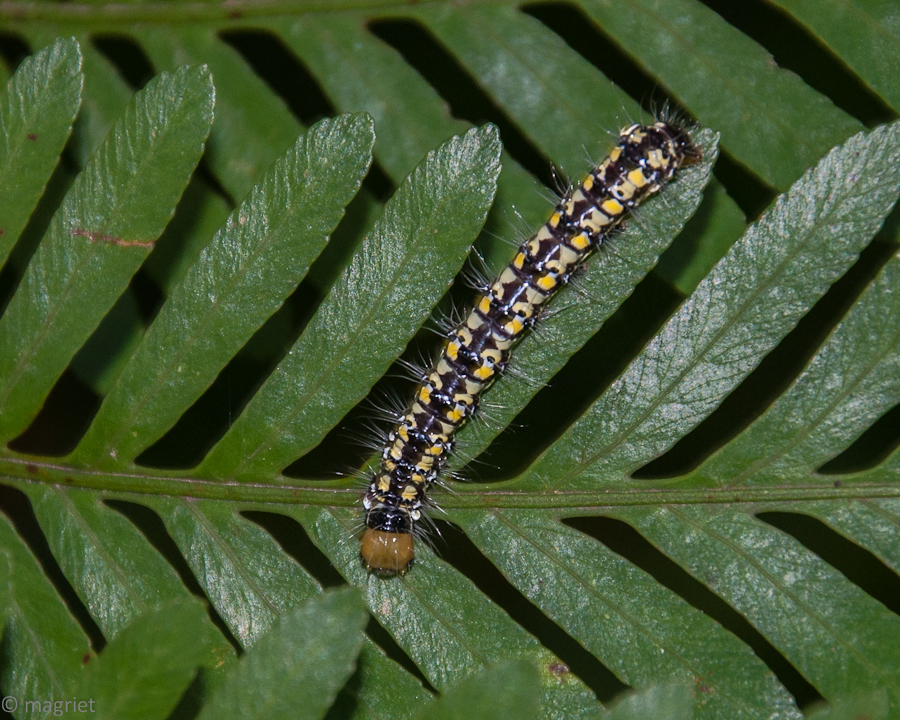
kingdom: Animalia
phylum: Arthropoda
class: Insecta
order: Lepidoptera
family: Noctuidae
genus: Nyodes
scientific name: Nyodes lutescens
